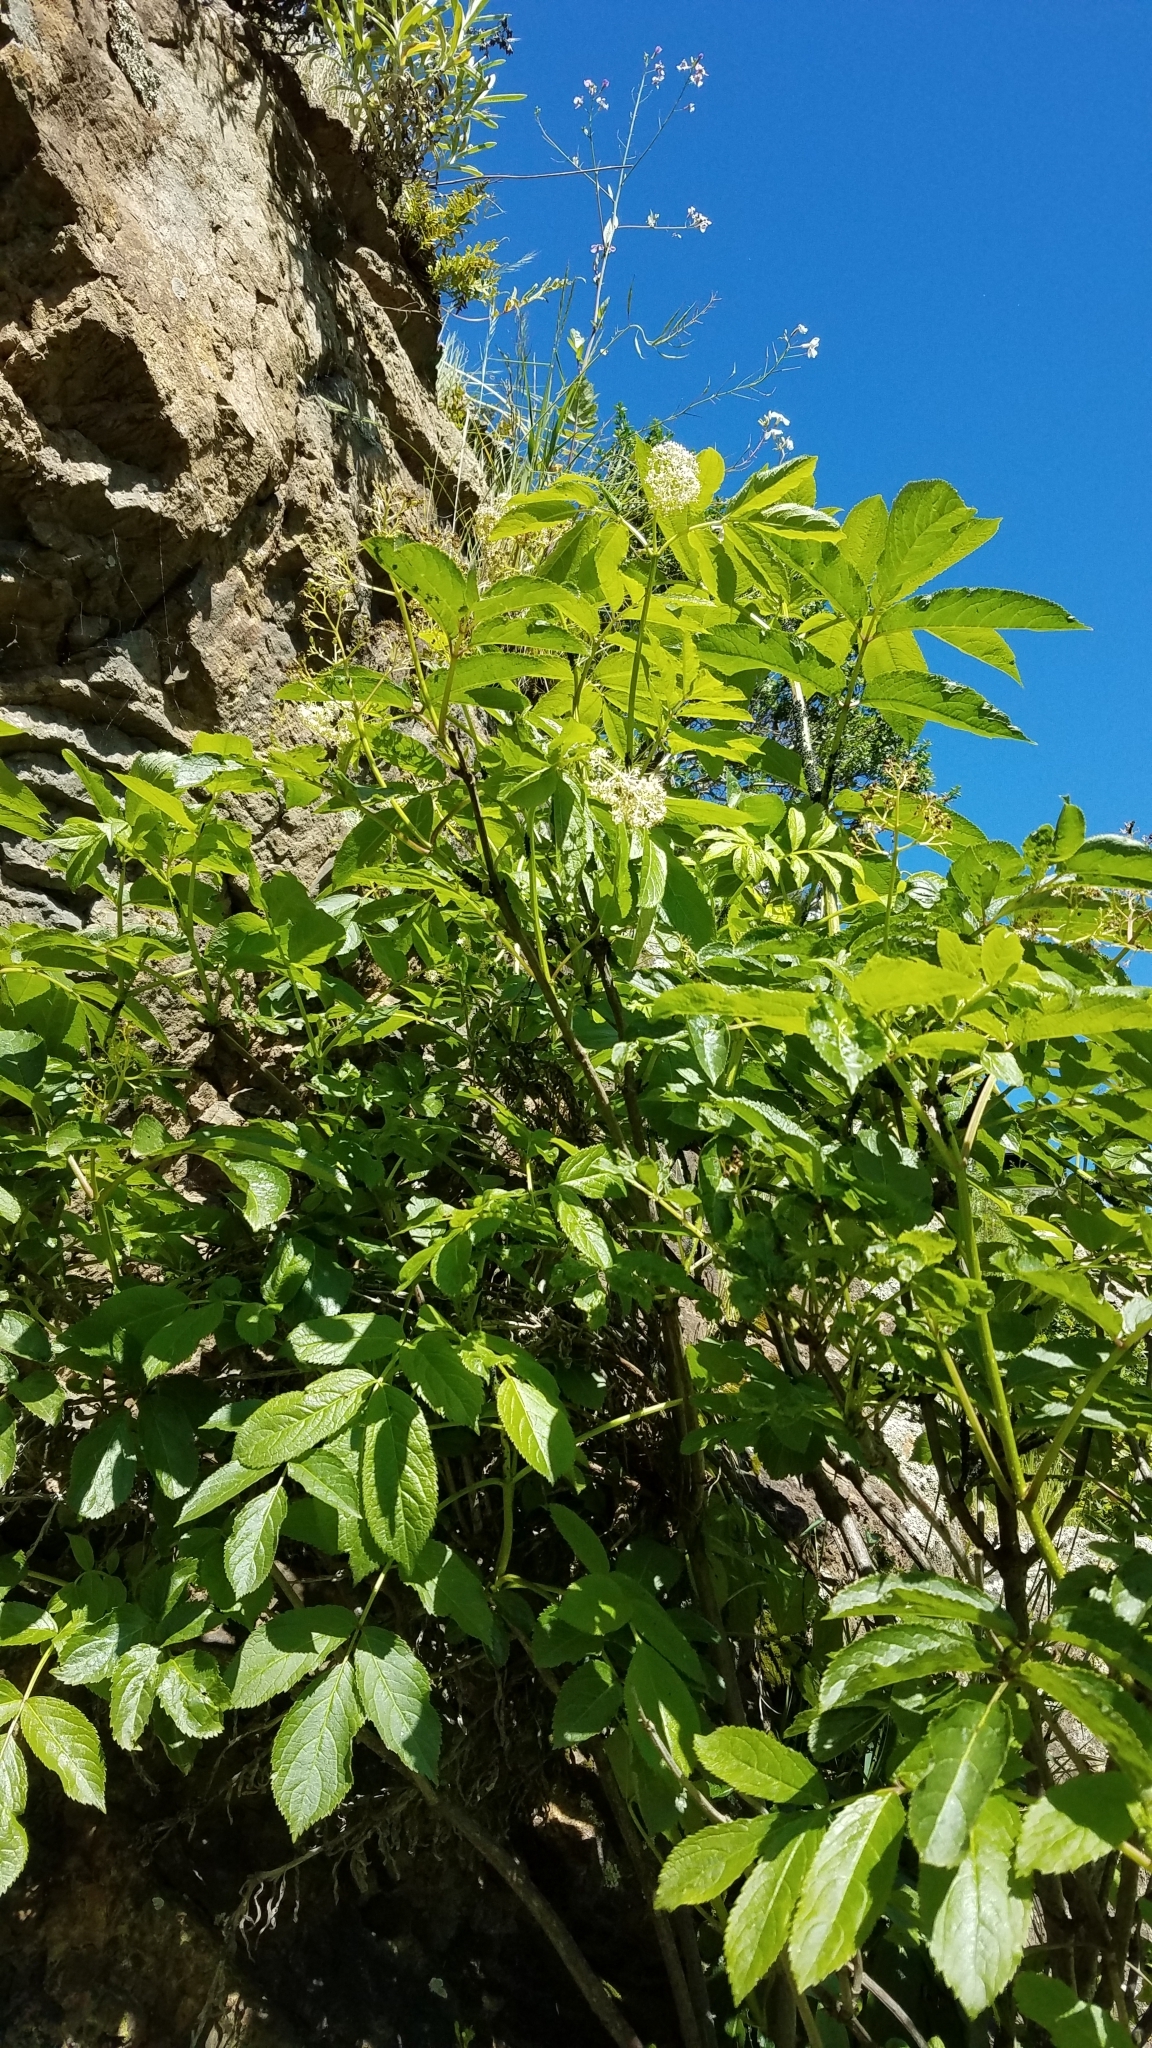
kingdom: Plantae
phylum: Tracheophyta
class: Magnoliopsida
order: Dipsacales
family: Viburnaceae
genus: Sambucus
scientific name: Sambucus racemosa
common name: Red-berried elder
